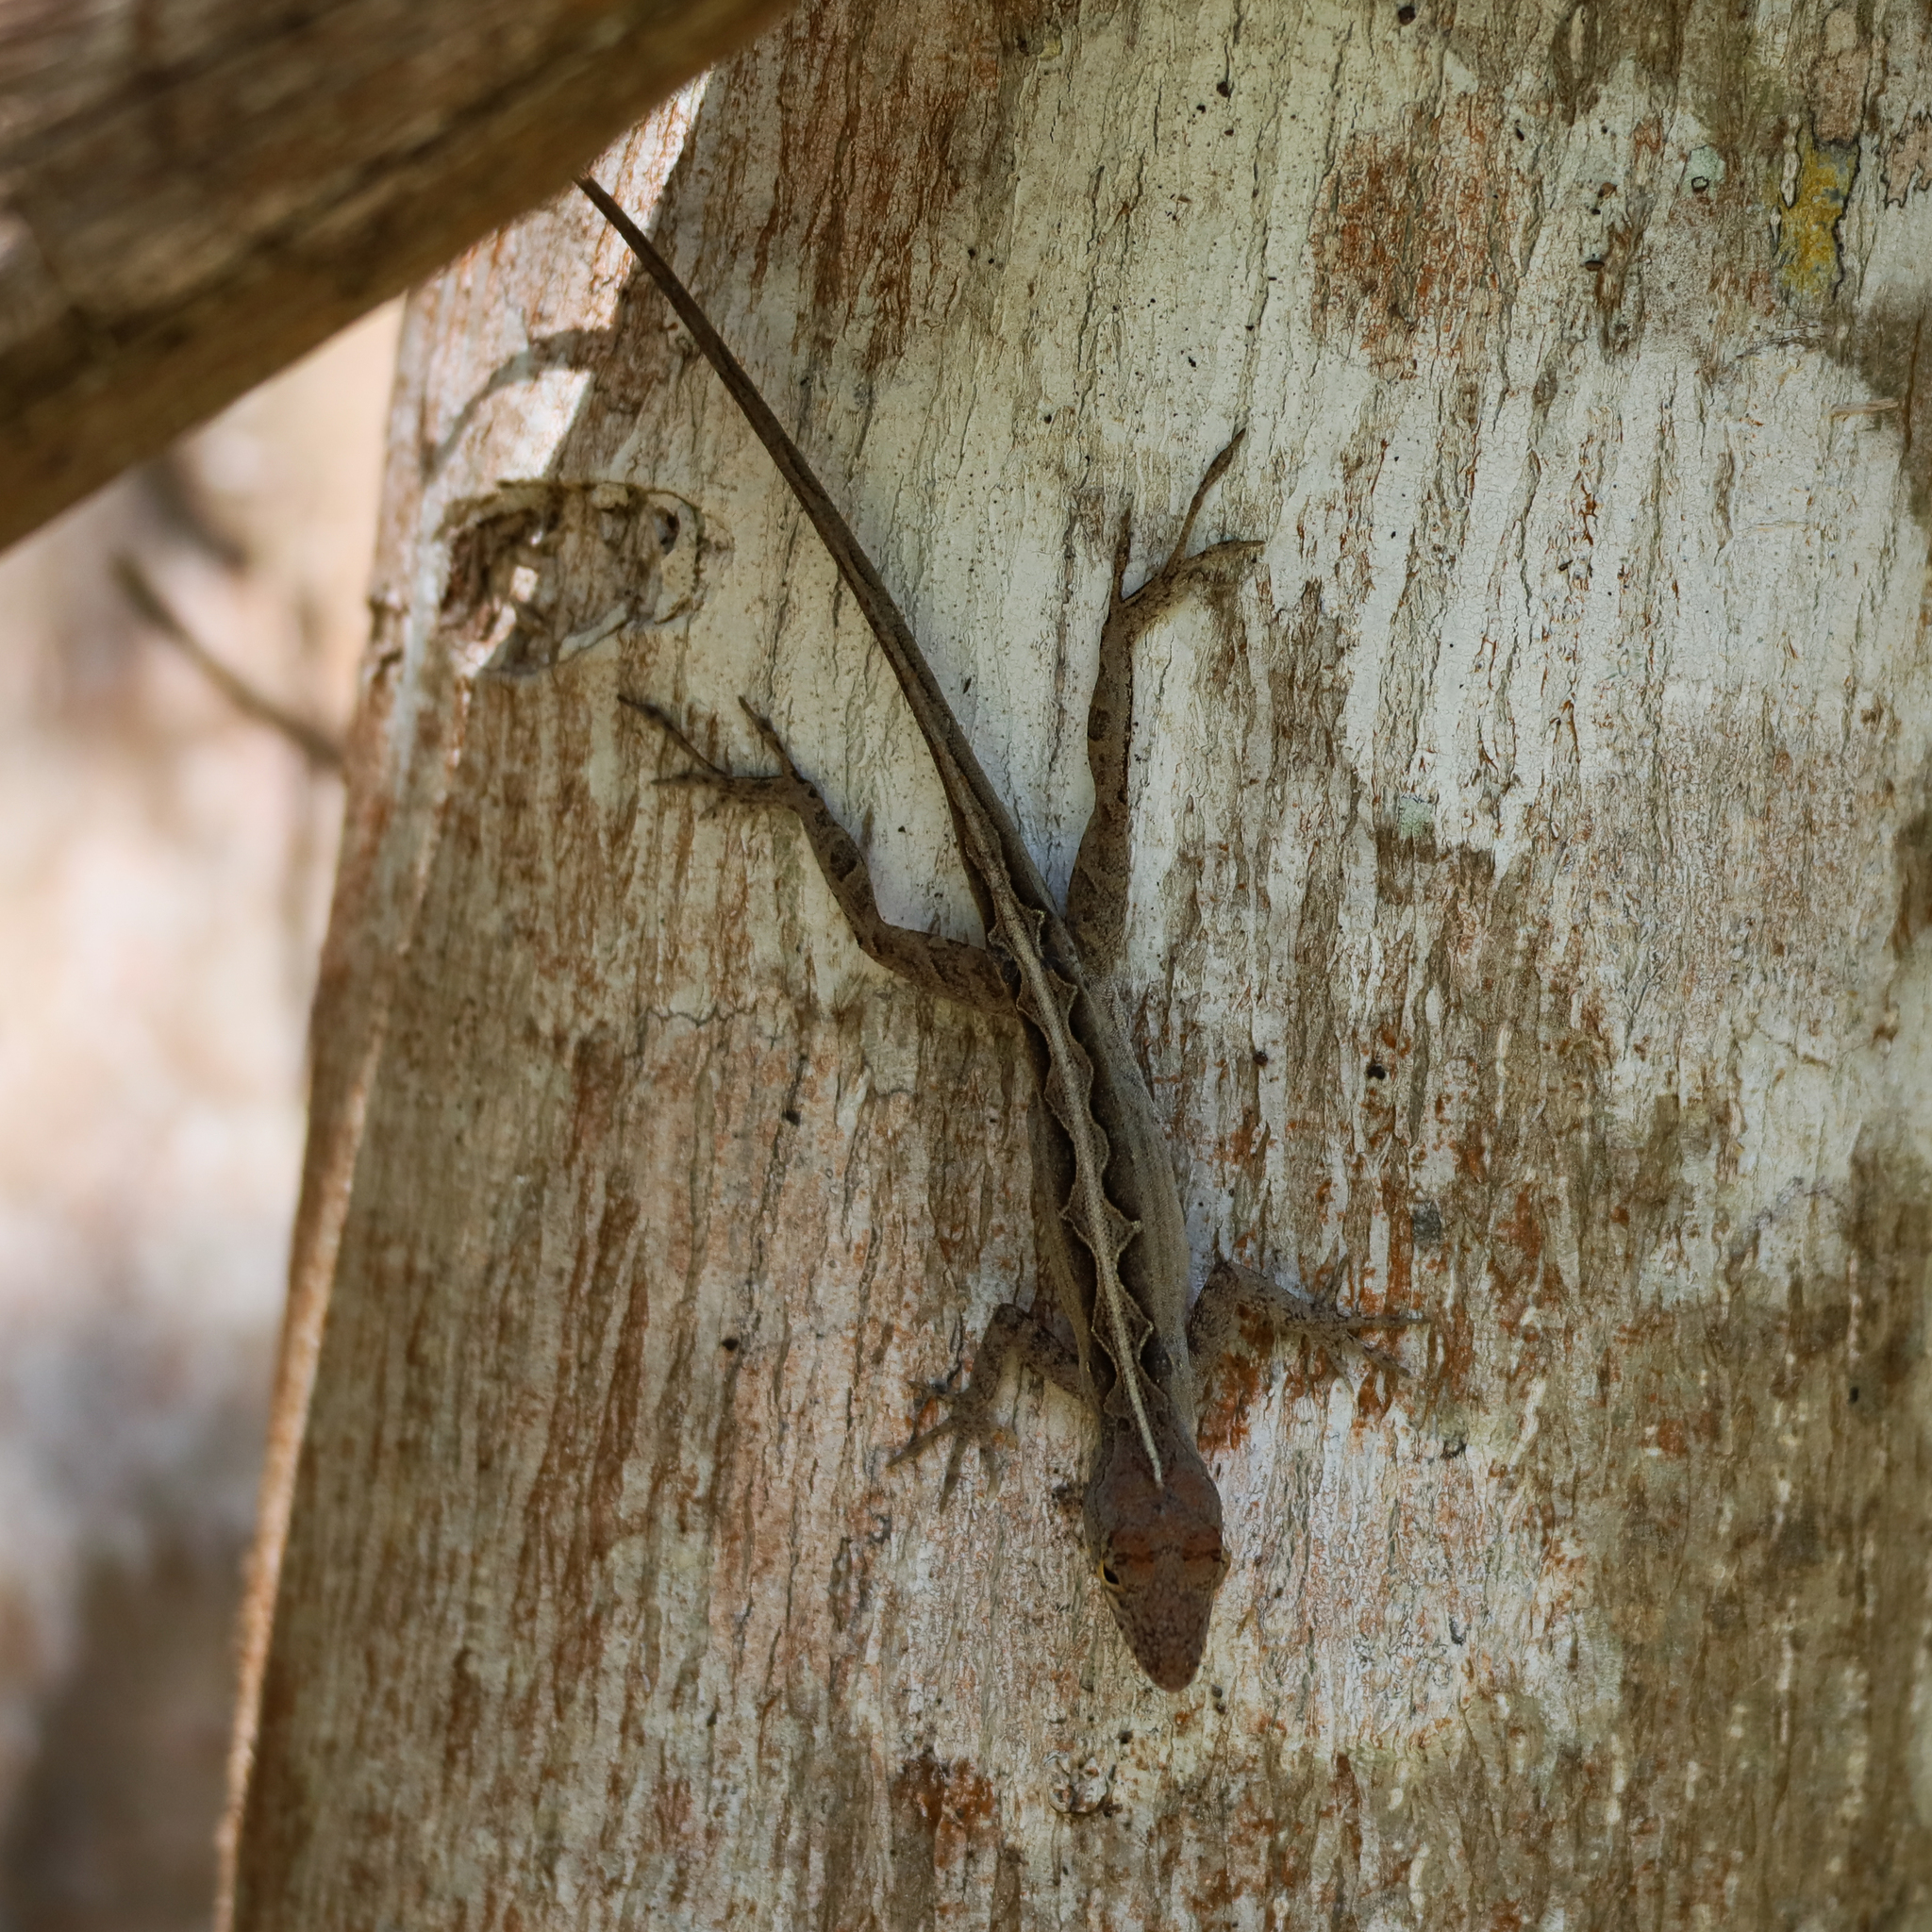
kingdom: Animalia
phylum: Chordata
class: Squamata
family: Dactyloidae
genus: Anolis
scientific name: Anolis sagrei
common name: Brown anole
